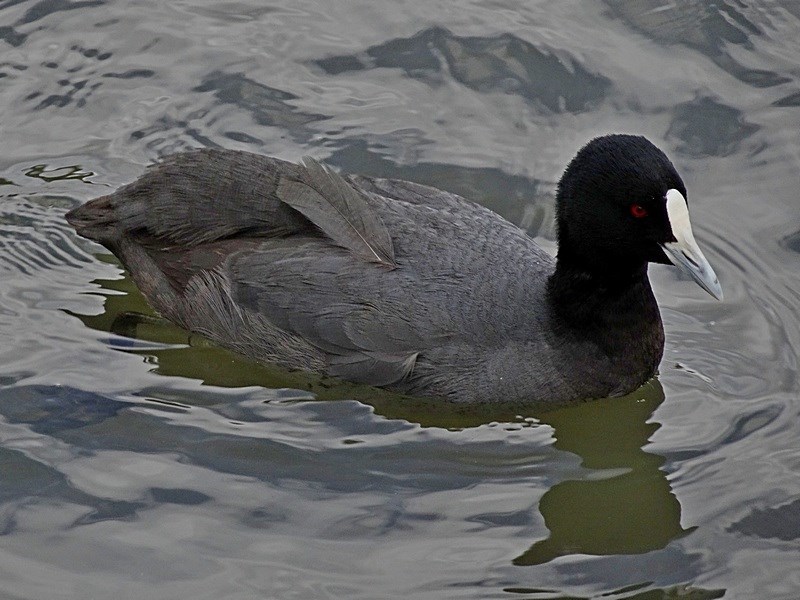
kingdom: Animalia
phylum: Chordata
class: Aves
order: Gruiformes
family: Rallidae
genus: Fulica
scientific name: Fulica atra
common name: Eurasian coot
